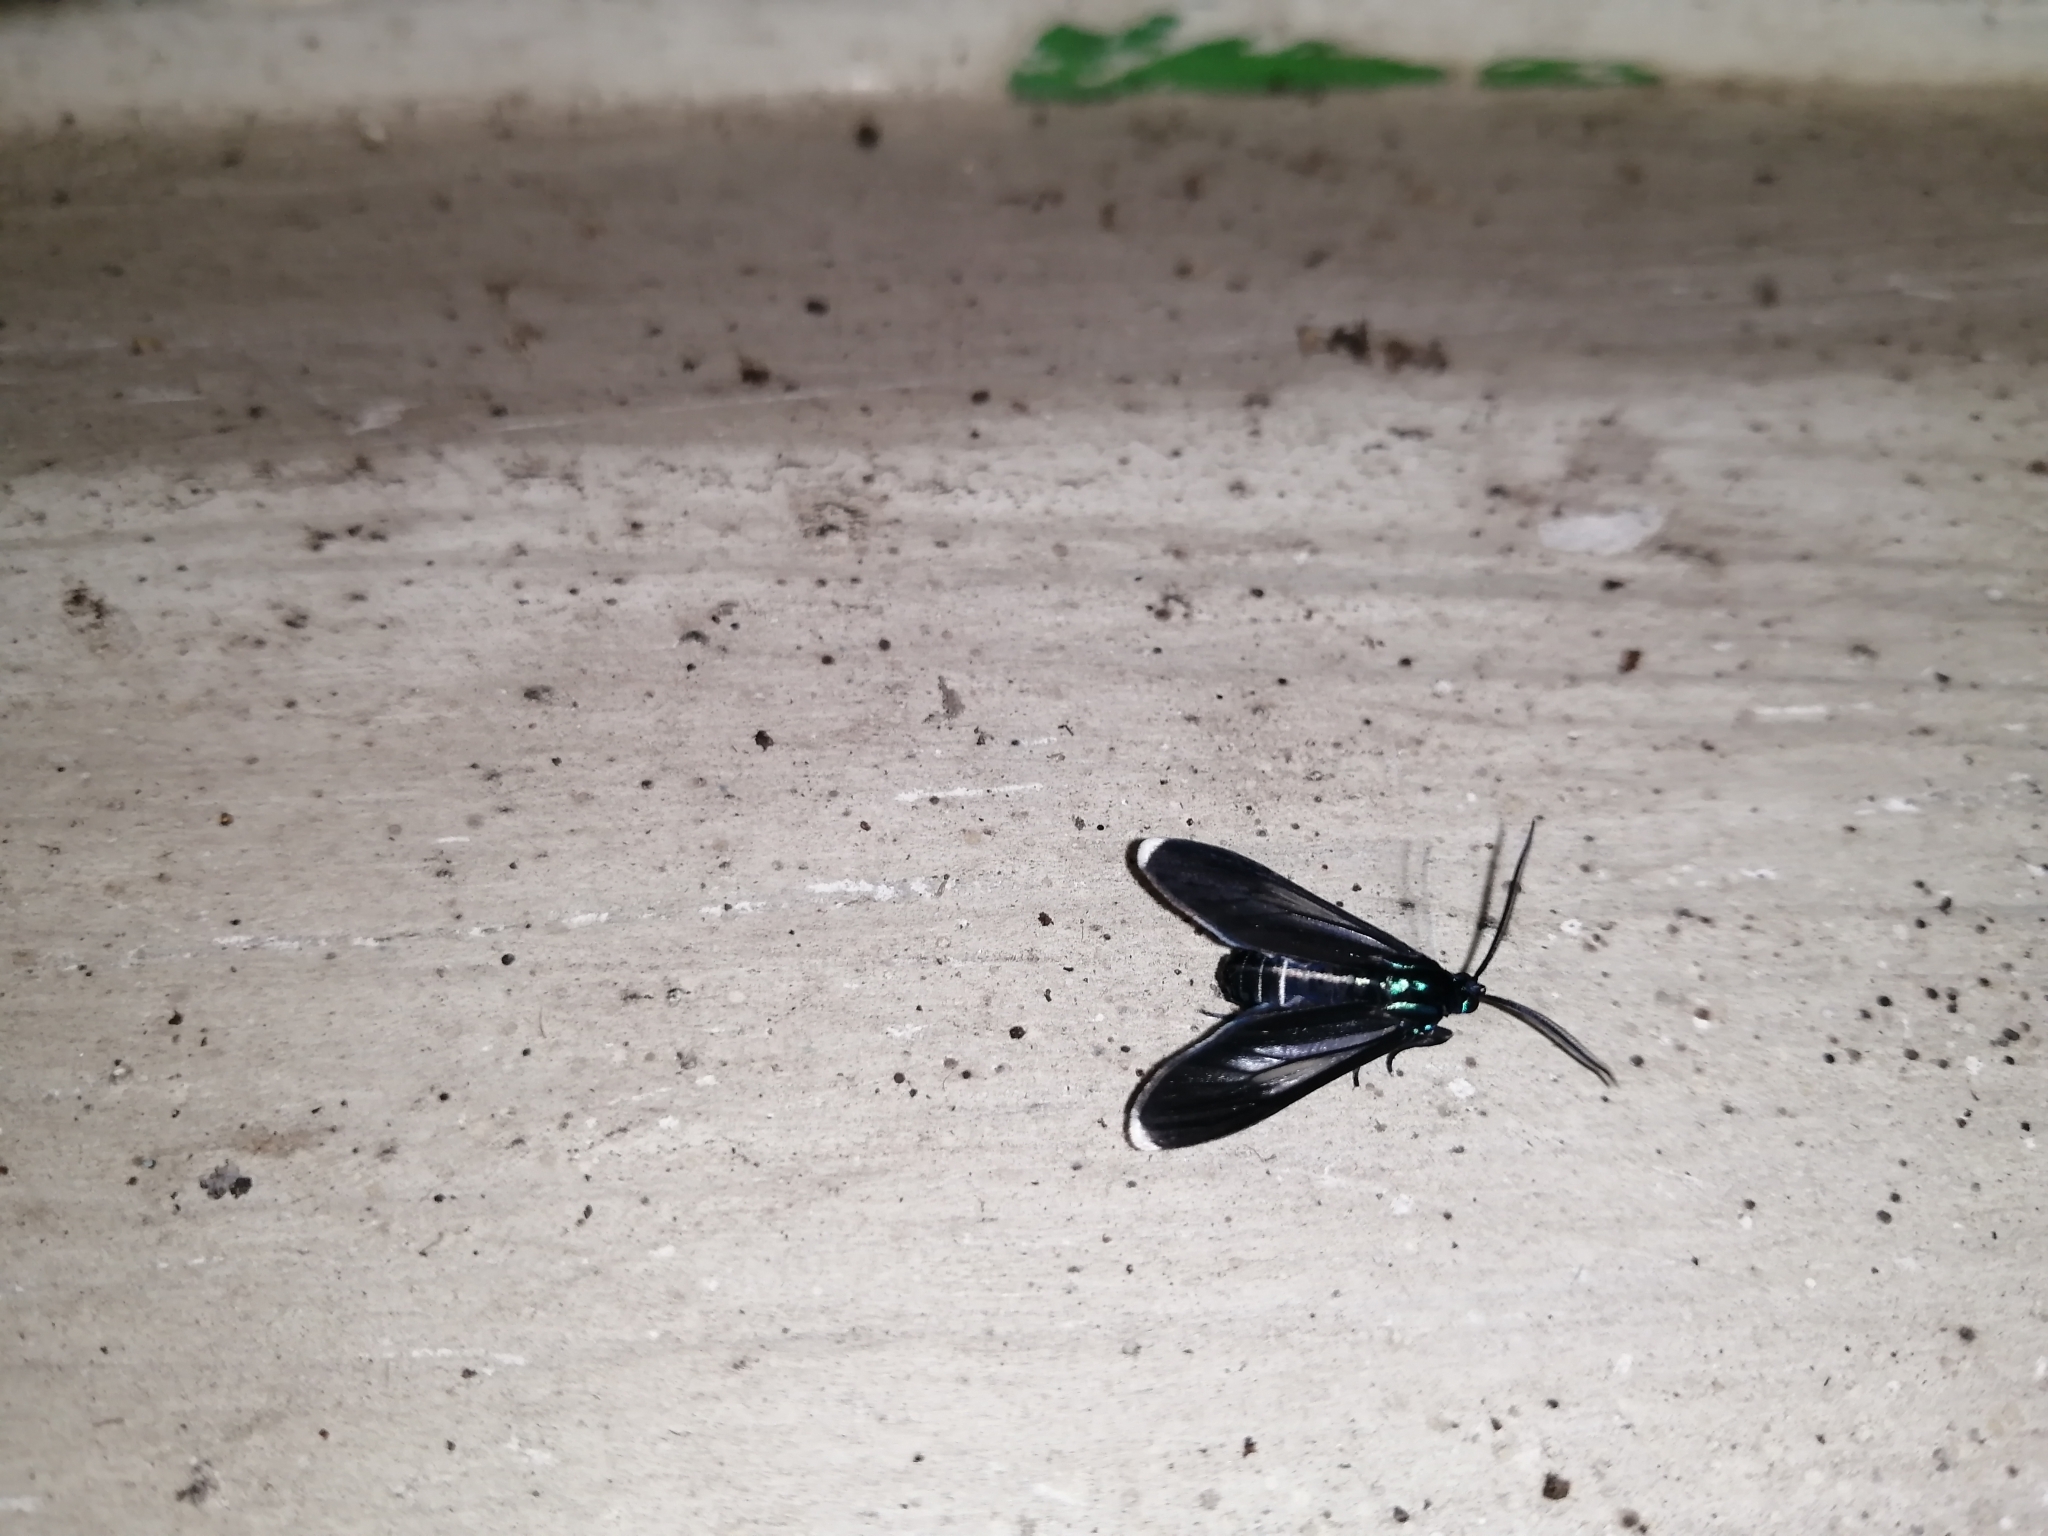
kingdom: Animalia
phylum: Arthropoda
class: Insecta
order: Lepidoptera
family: Erebidae
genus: Uranophora
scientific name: Uranophora leucotela
